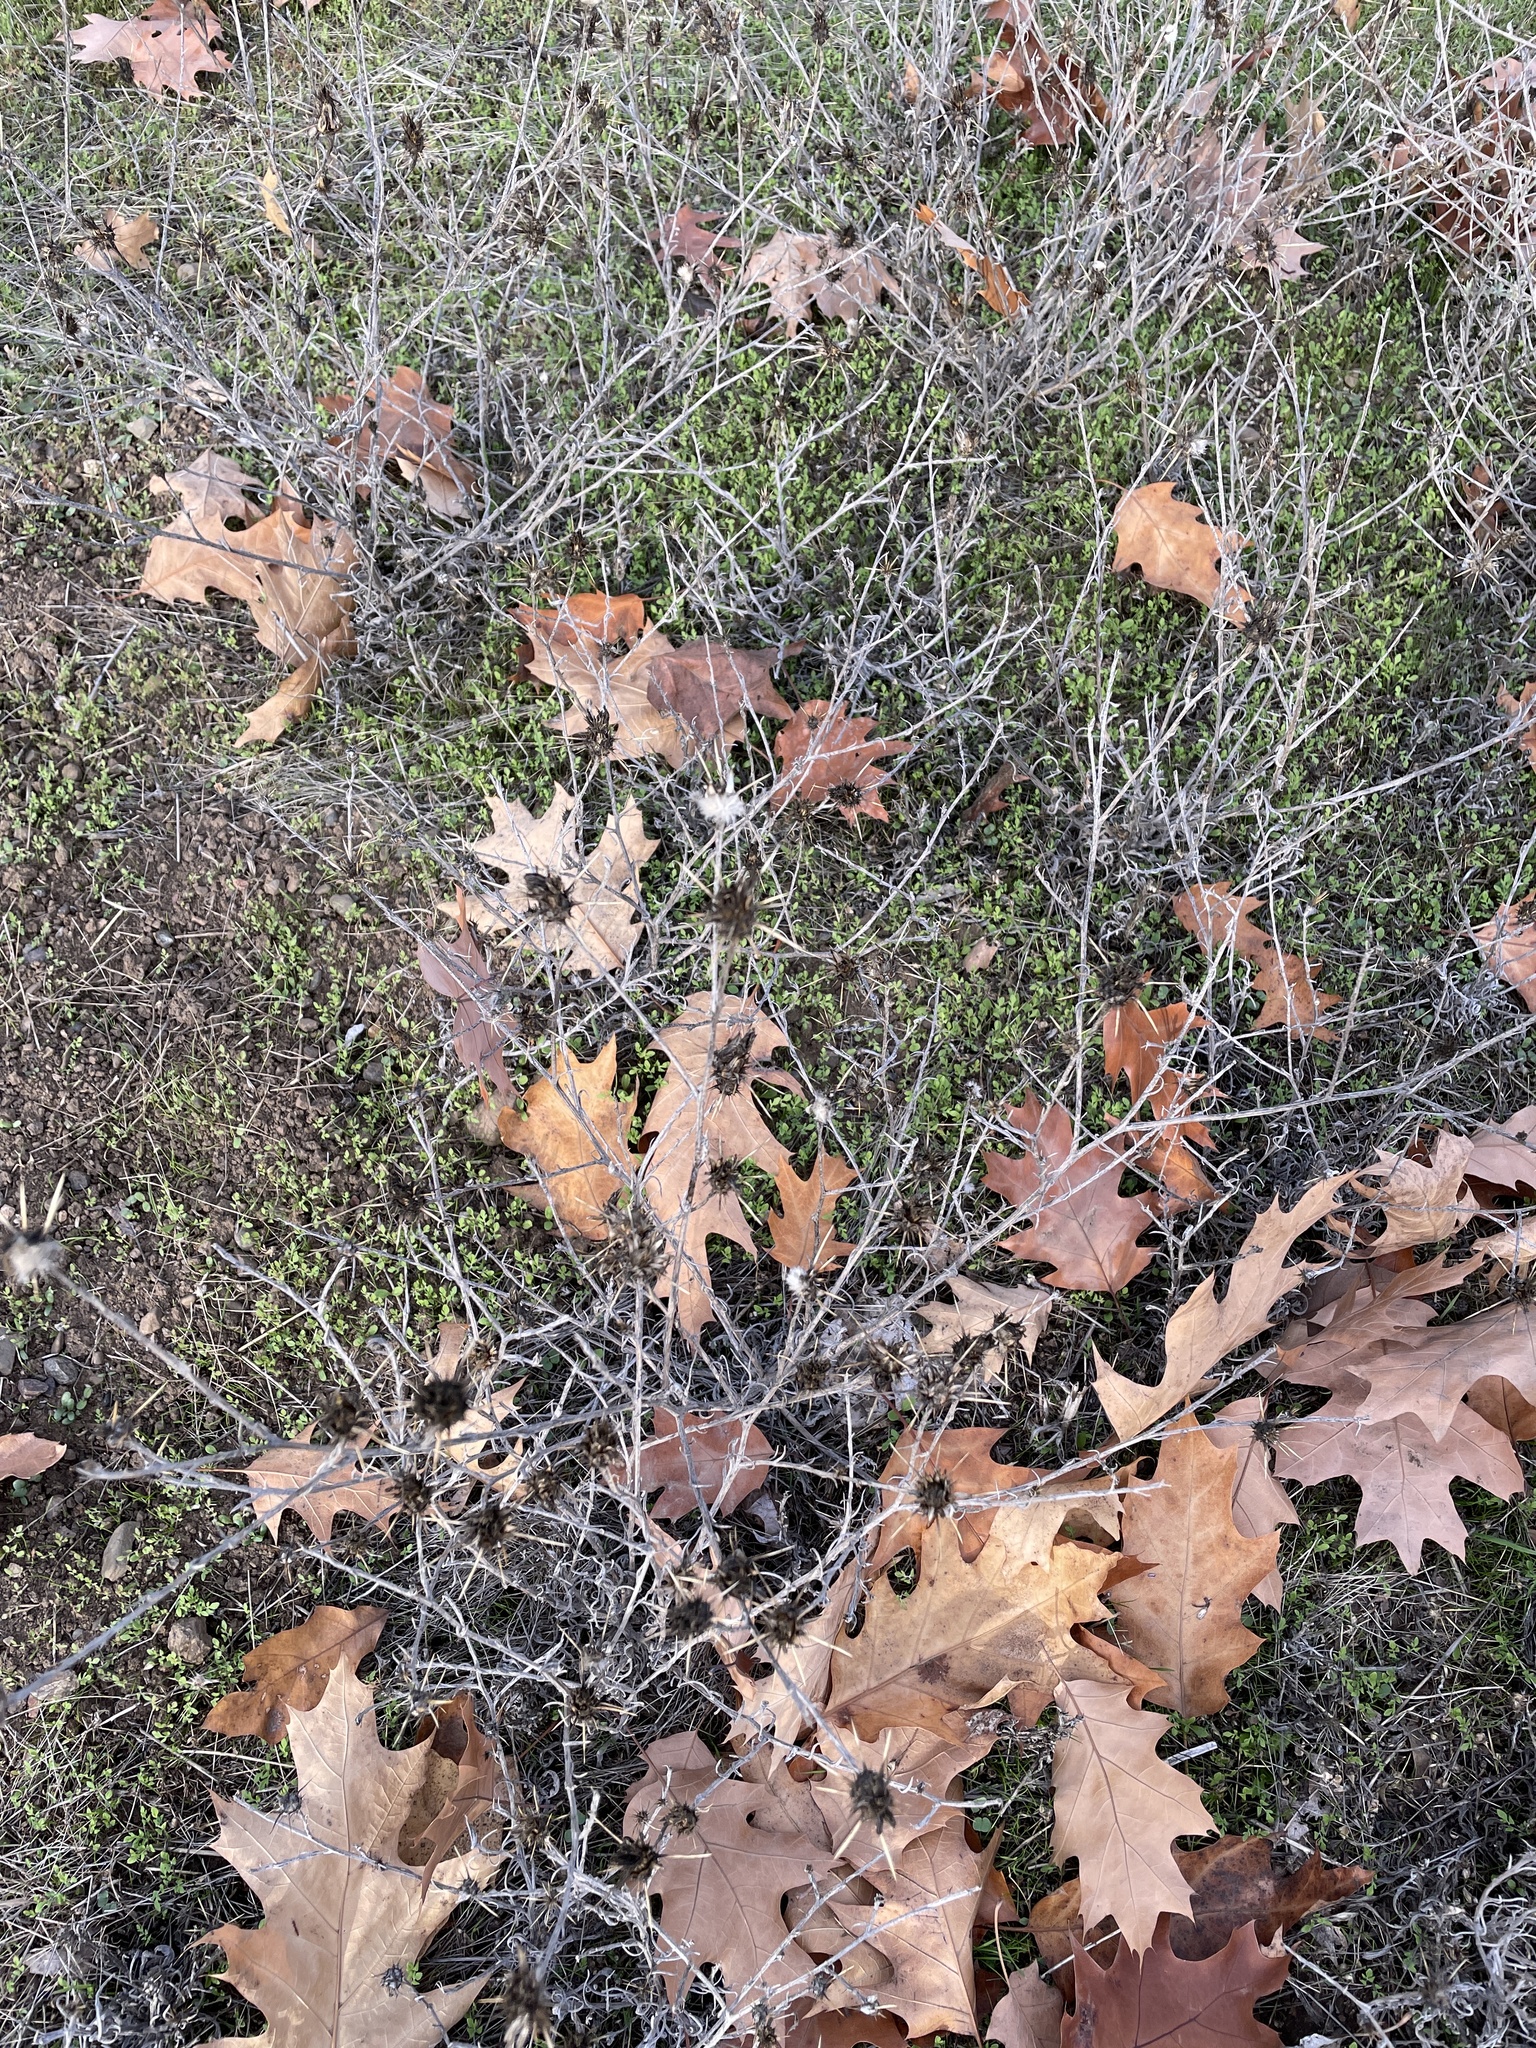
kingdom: Plantae
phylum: Tracheophyta
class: Magnoliopsida
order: Asterales
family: Asteraceae
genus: Centaurea
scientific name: Centaurea solstitialis
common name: Yellow star-thistle
